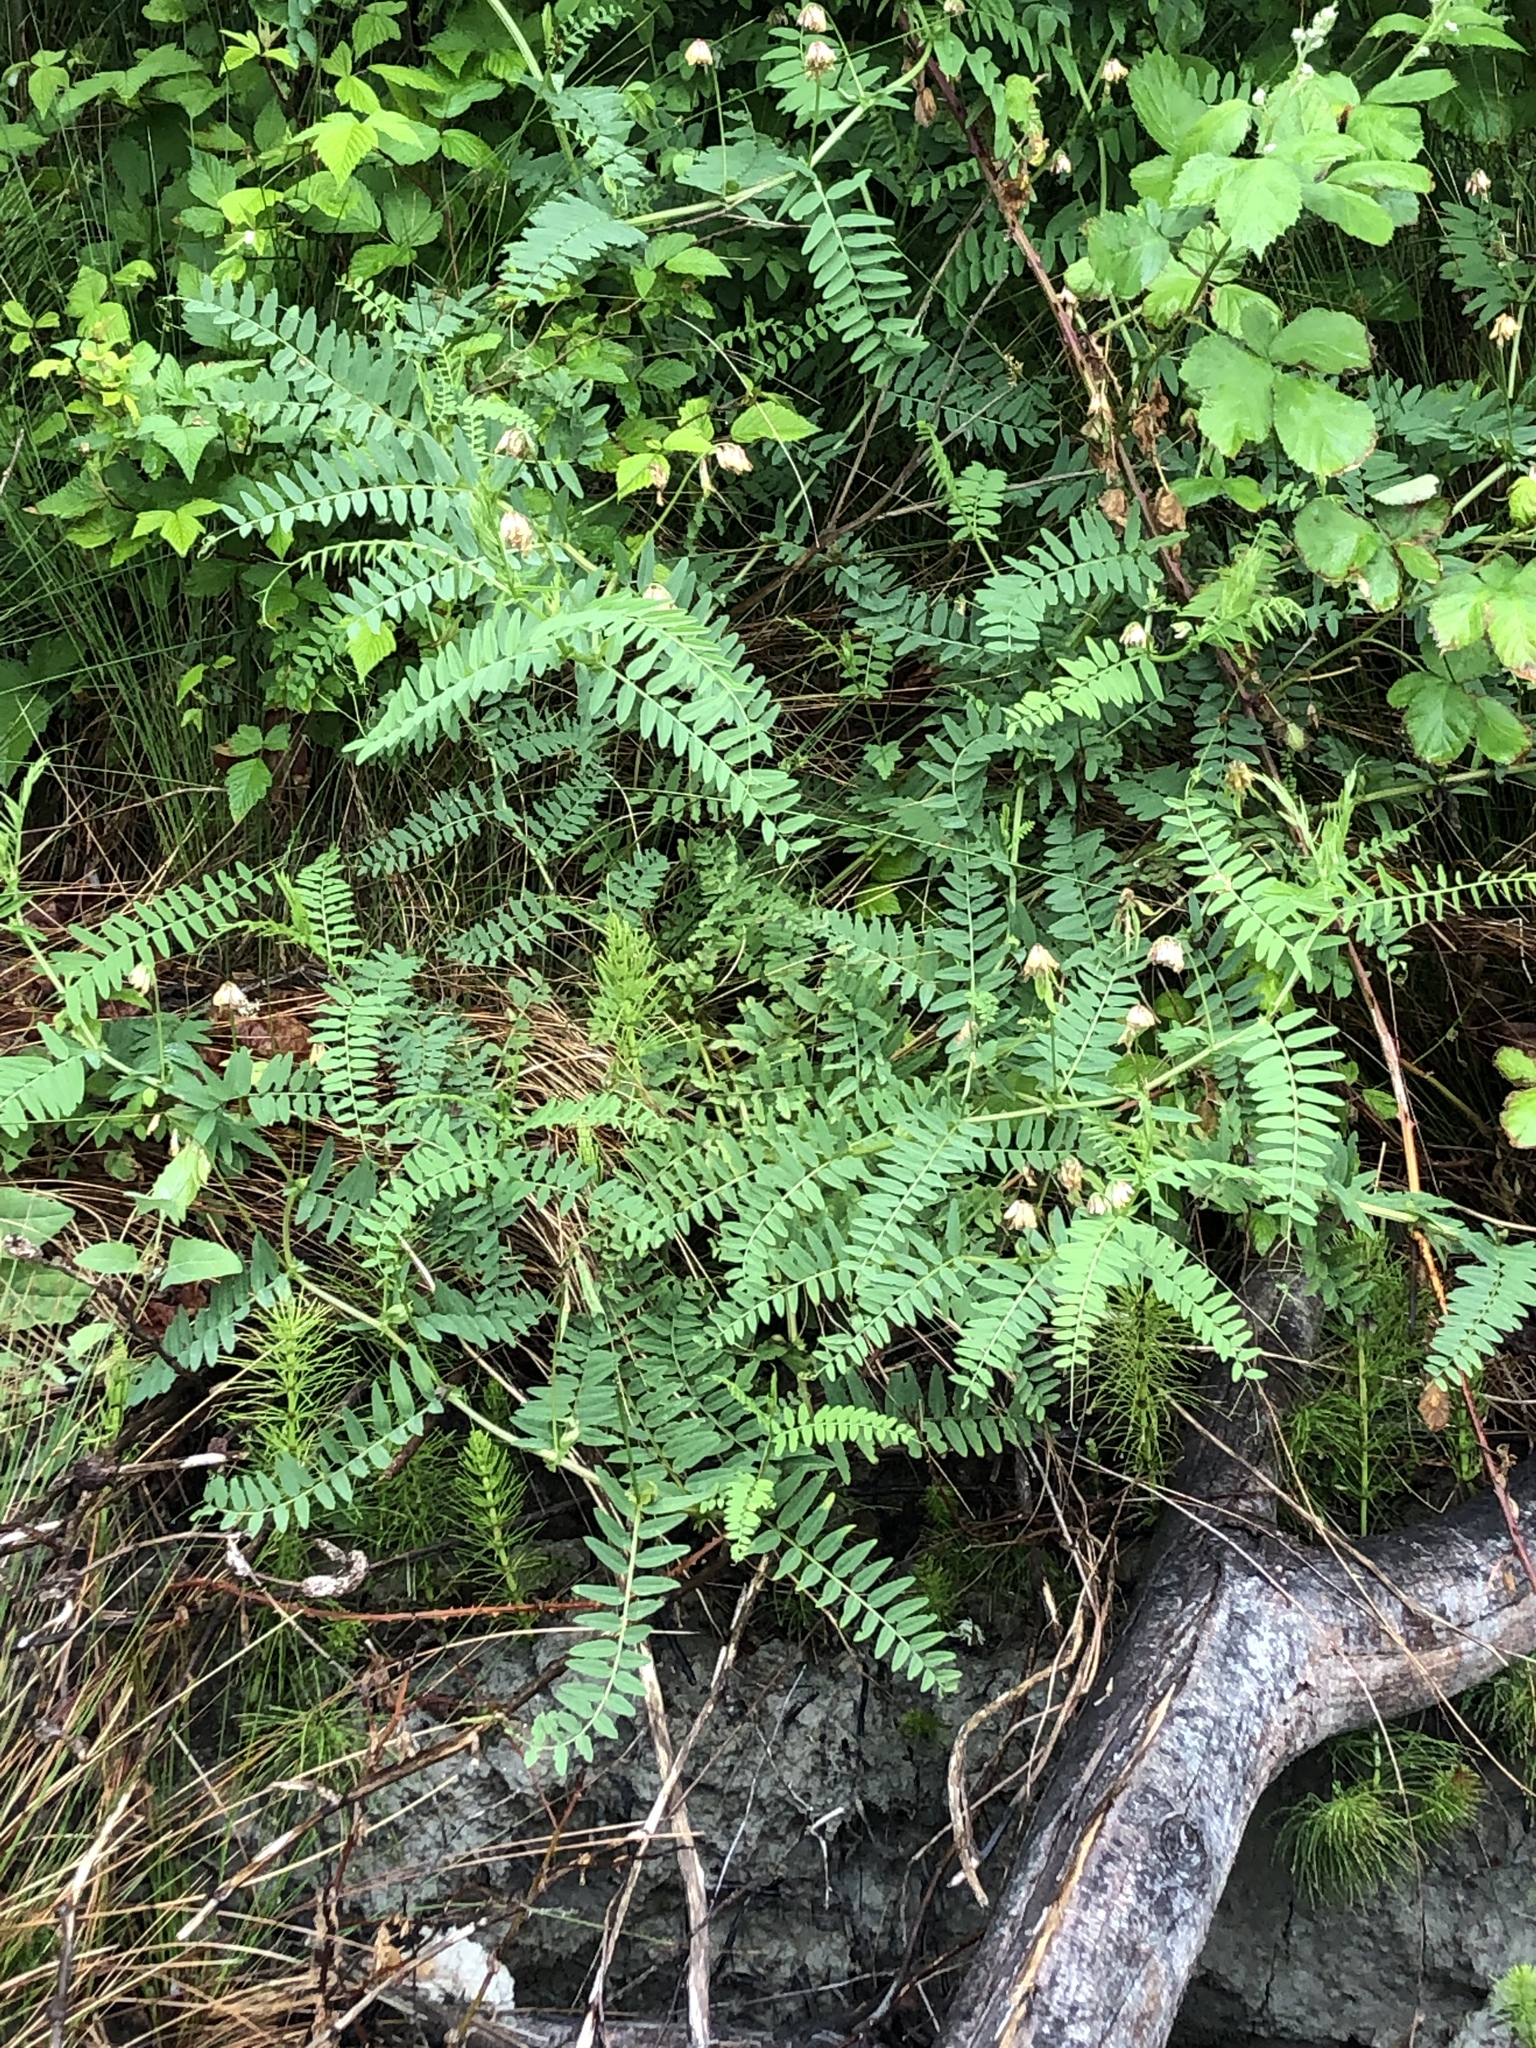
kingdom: Plantae
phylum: Tracheophyta
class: Magnoliopsida
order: Fabales
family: Fabaceae
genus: Vicia
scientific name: Vicia
